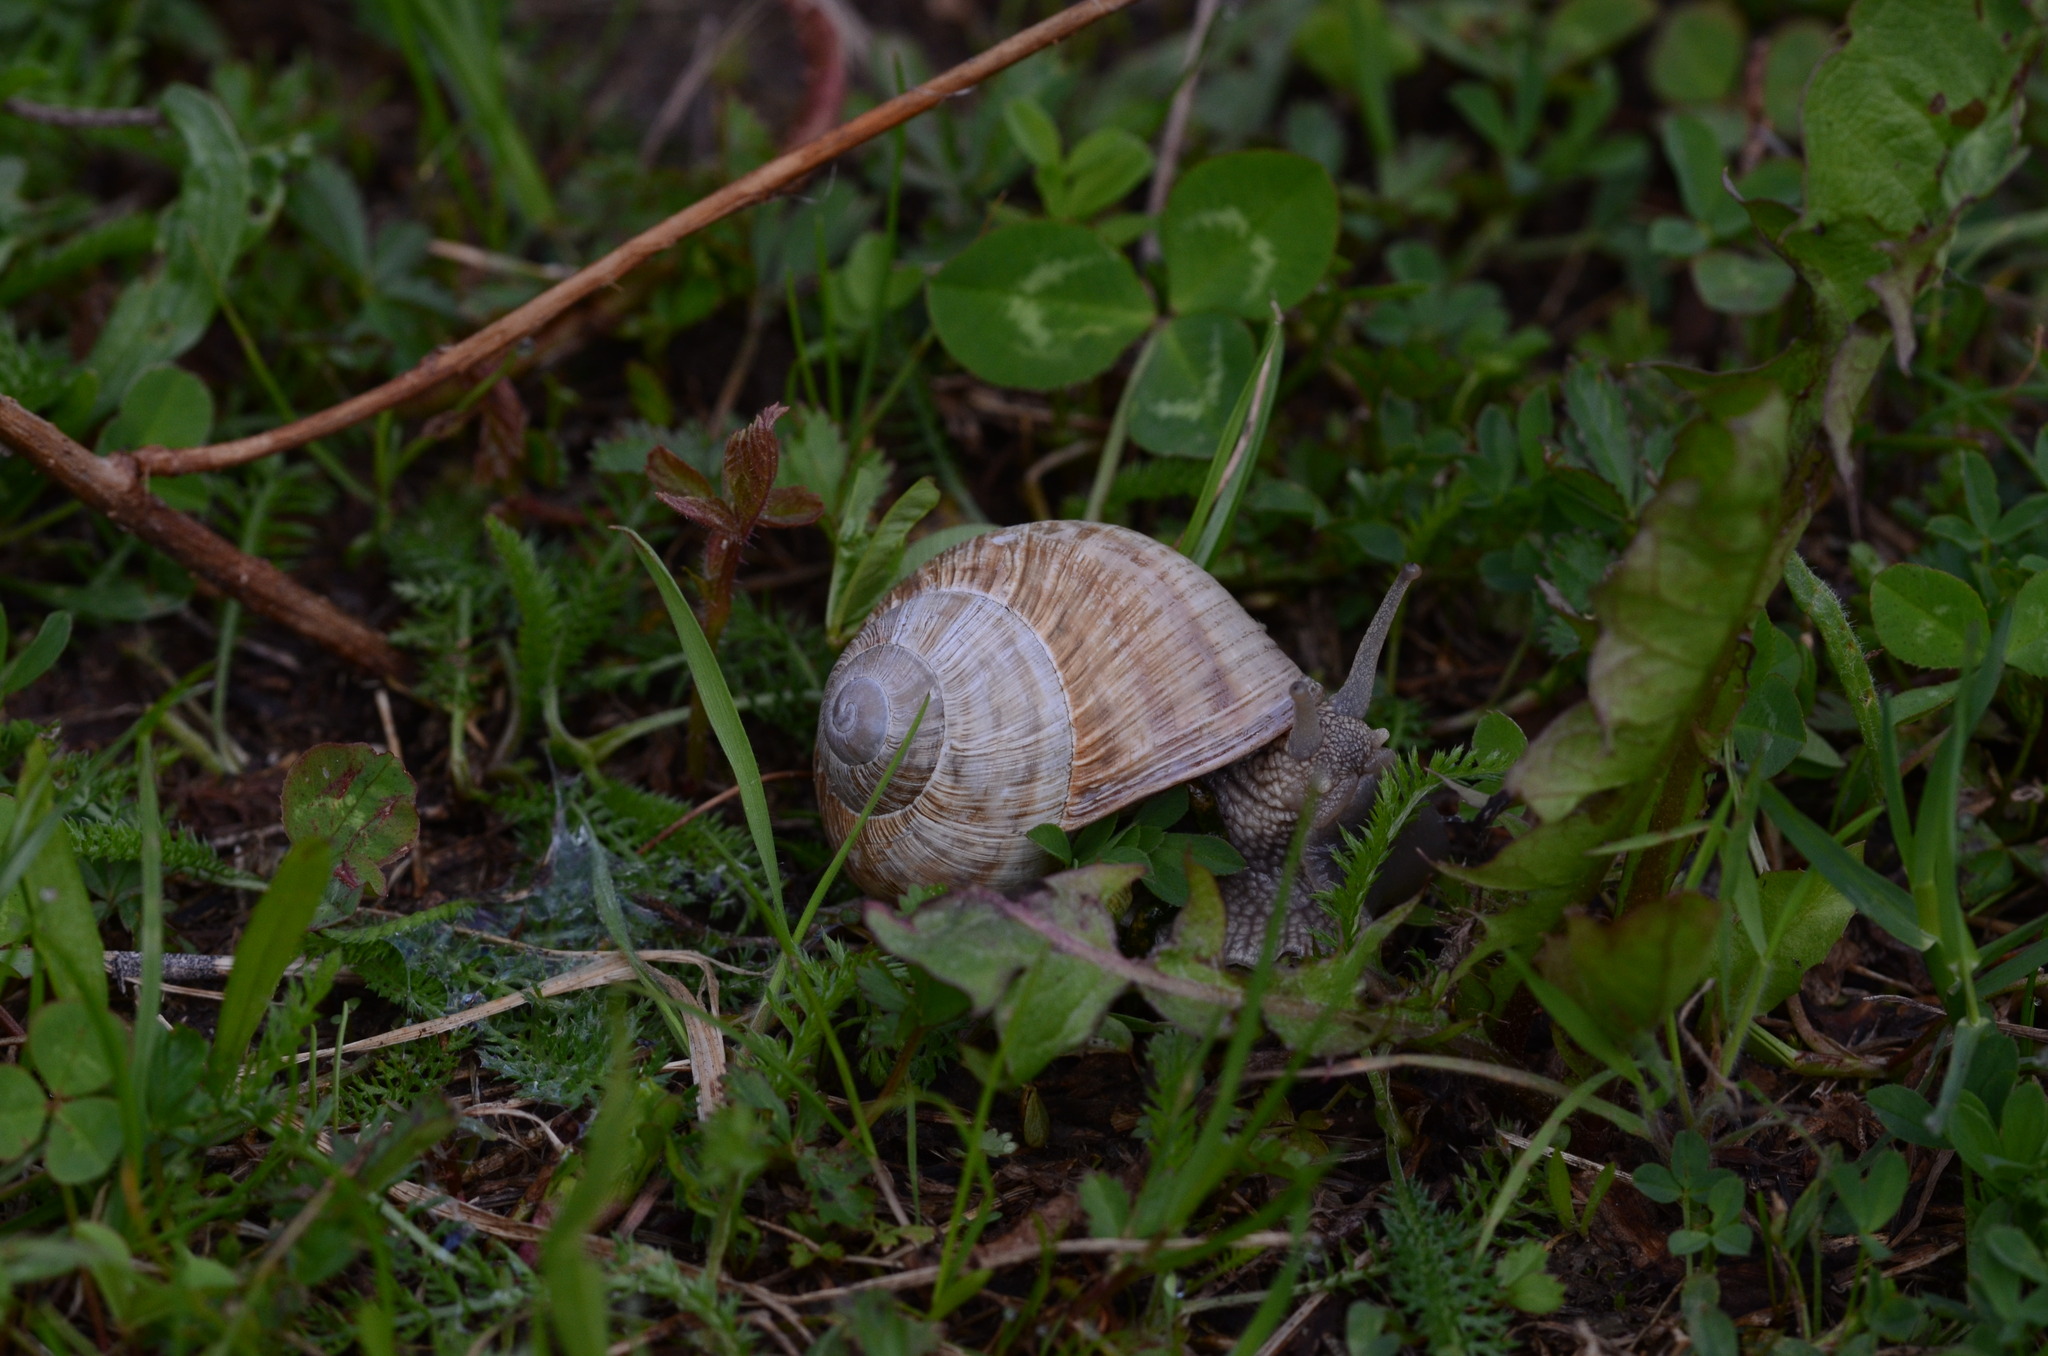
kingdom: Animalia
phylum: Mollusca
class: Gastropoda
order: Stylommatophora
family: Helicidae
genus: Helix
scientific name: Helix pomatia
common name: Roman snail
